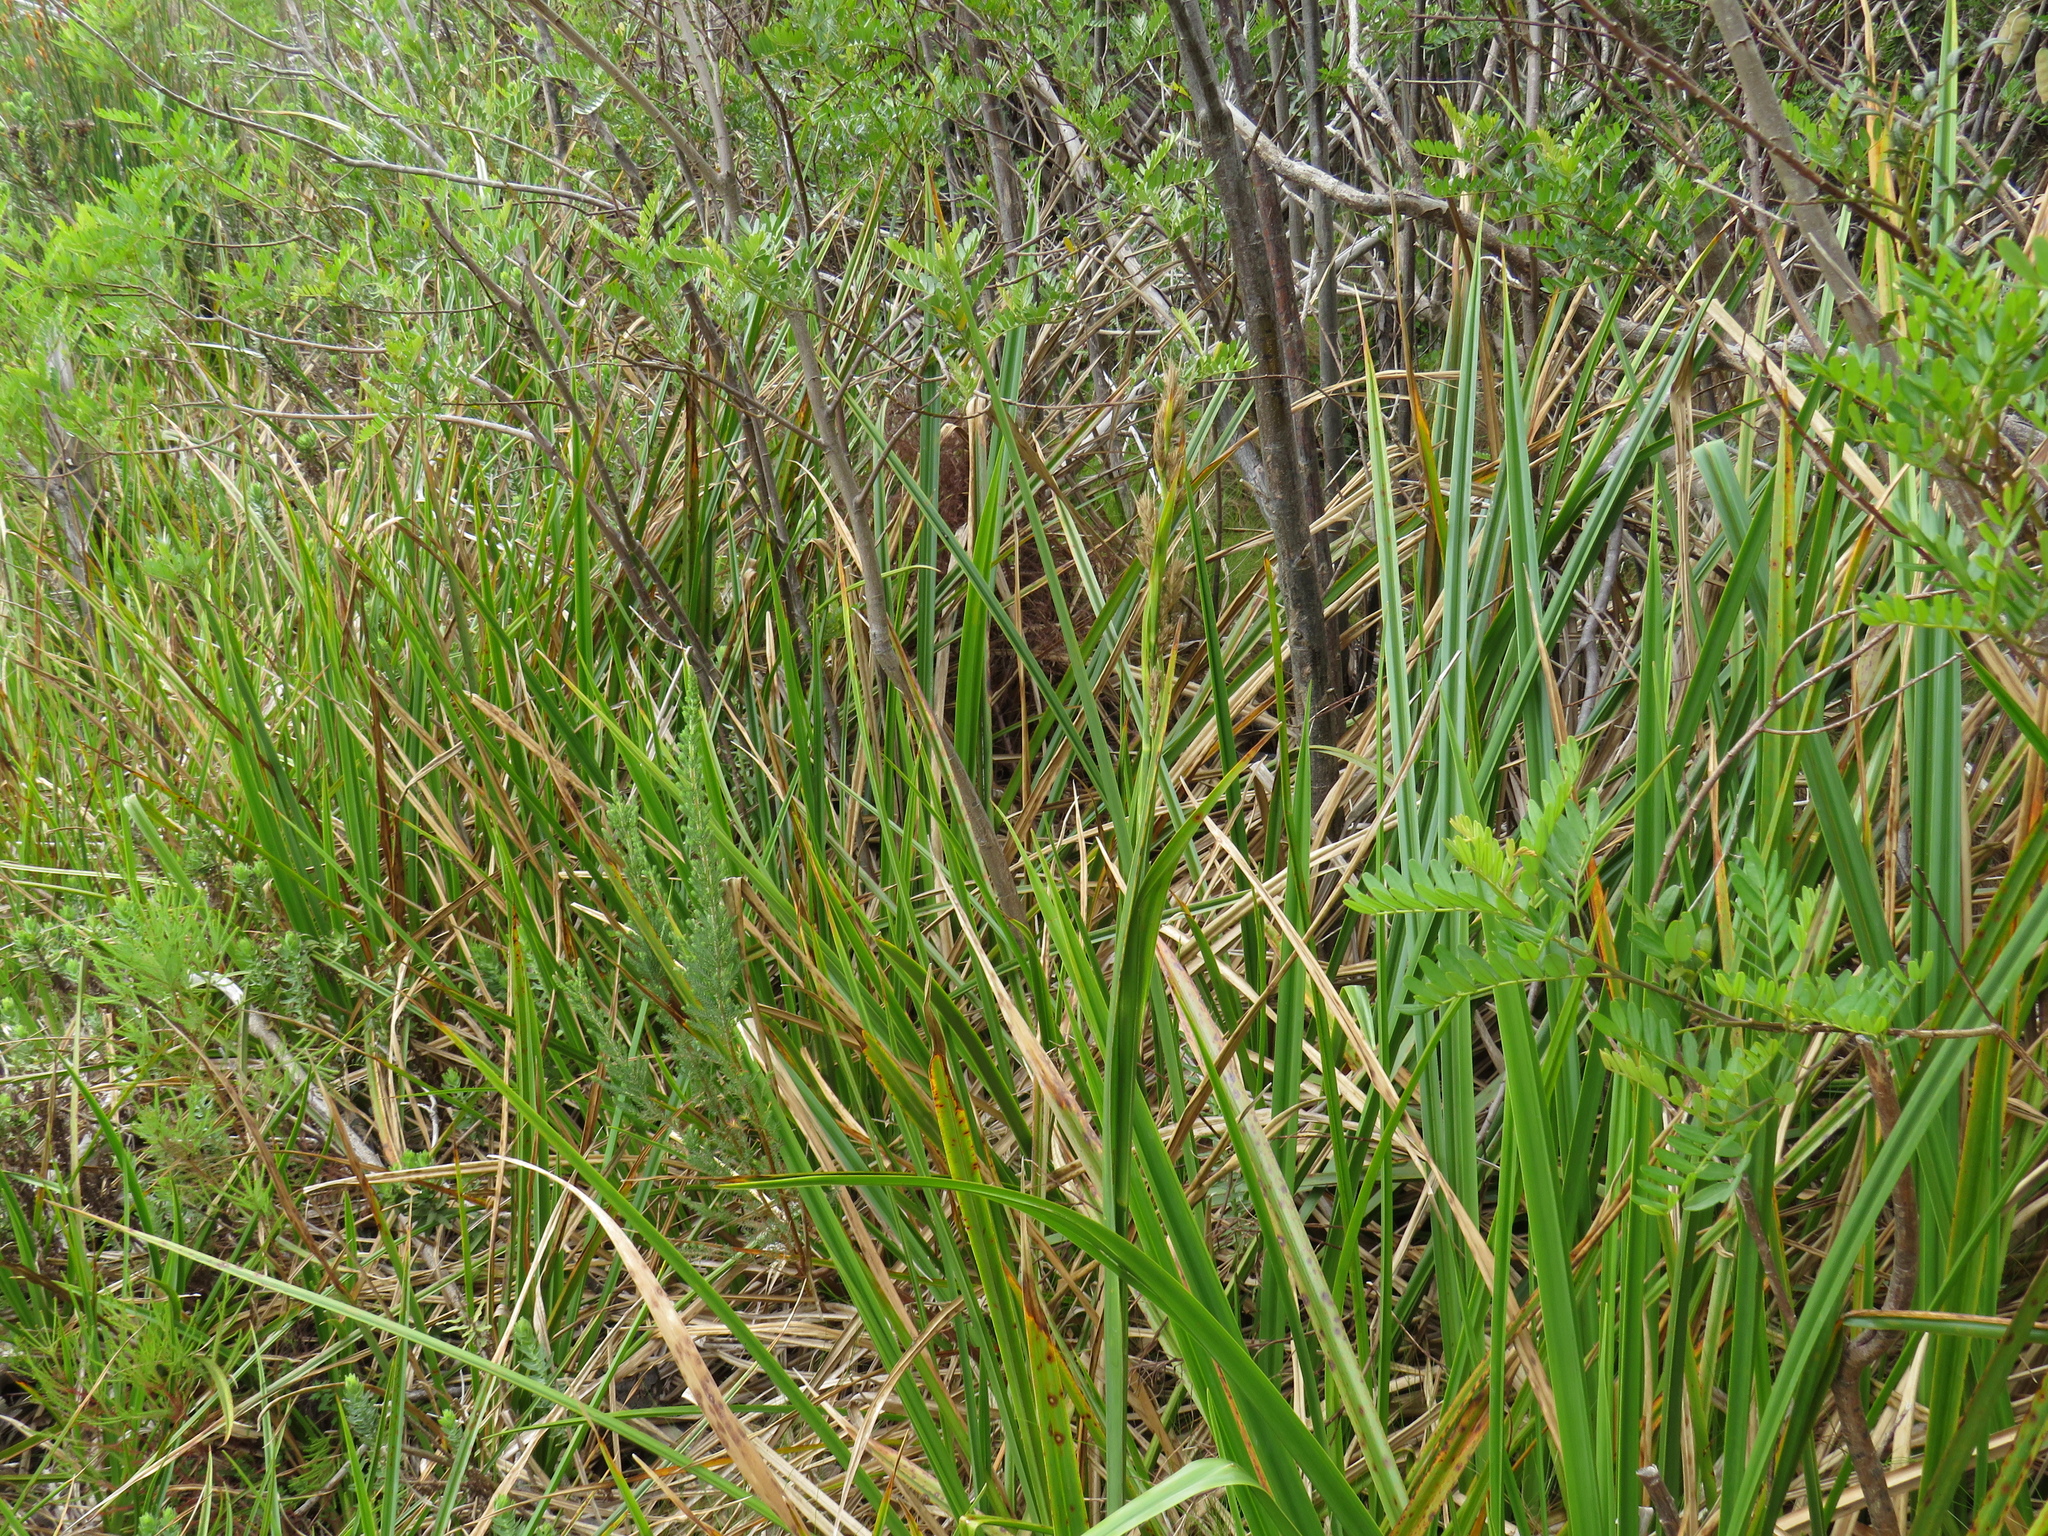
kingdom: Plantae
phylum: Tracheophyta
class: Liliopsida
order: Poales
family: Cyperaceae
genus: Carpha
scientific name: Carpha glomerata
